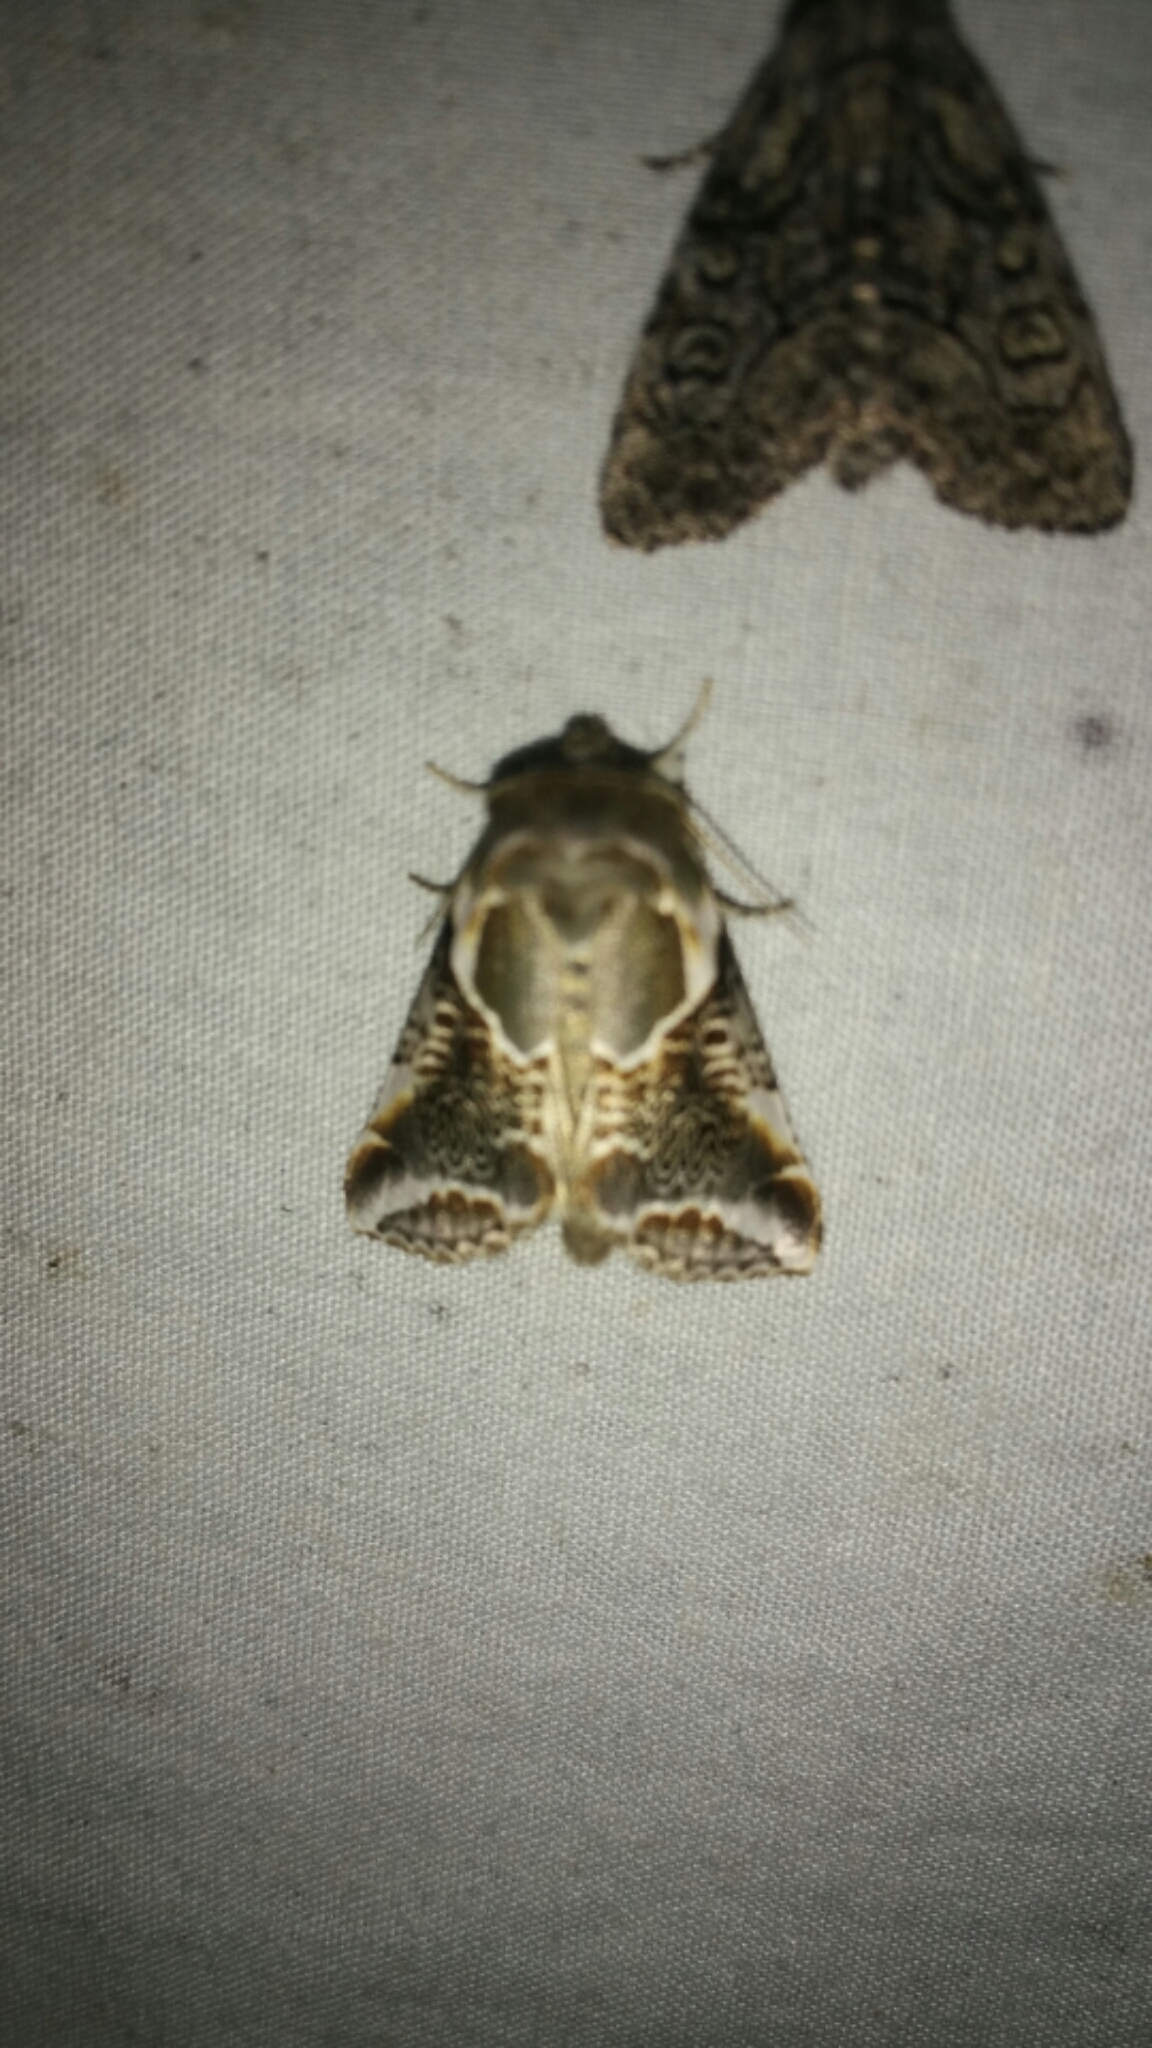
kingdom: Animalia
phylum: Arthropoda
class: Insecta
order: Lepidoptera
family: Drepanidae
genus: Habrosyne
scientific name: Habrosyne scripta
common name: Lettered habrosyne moth
